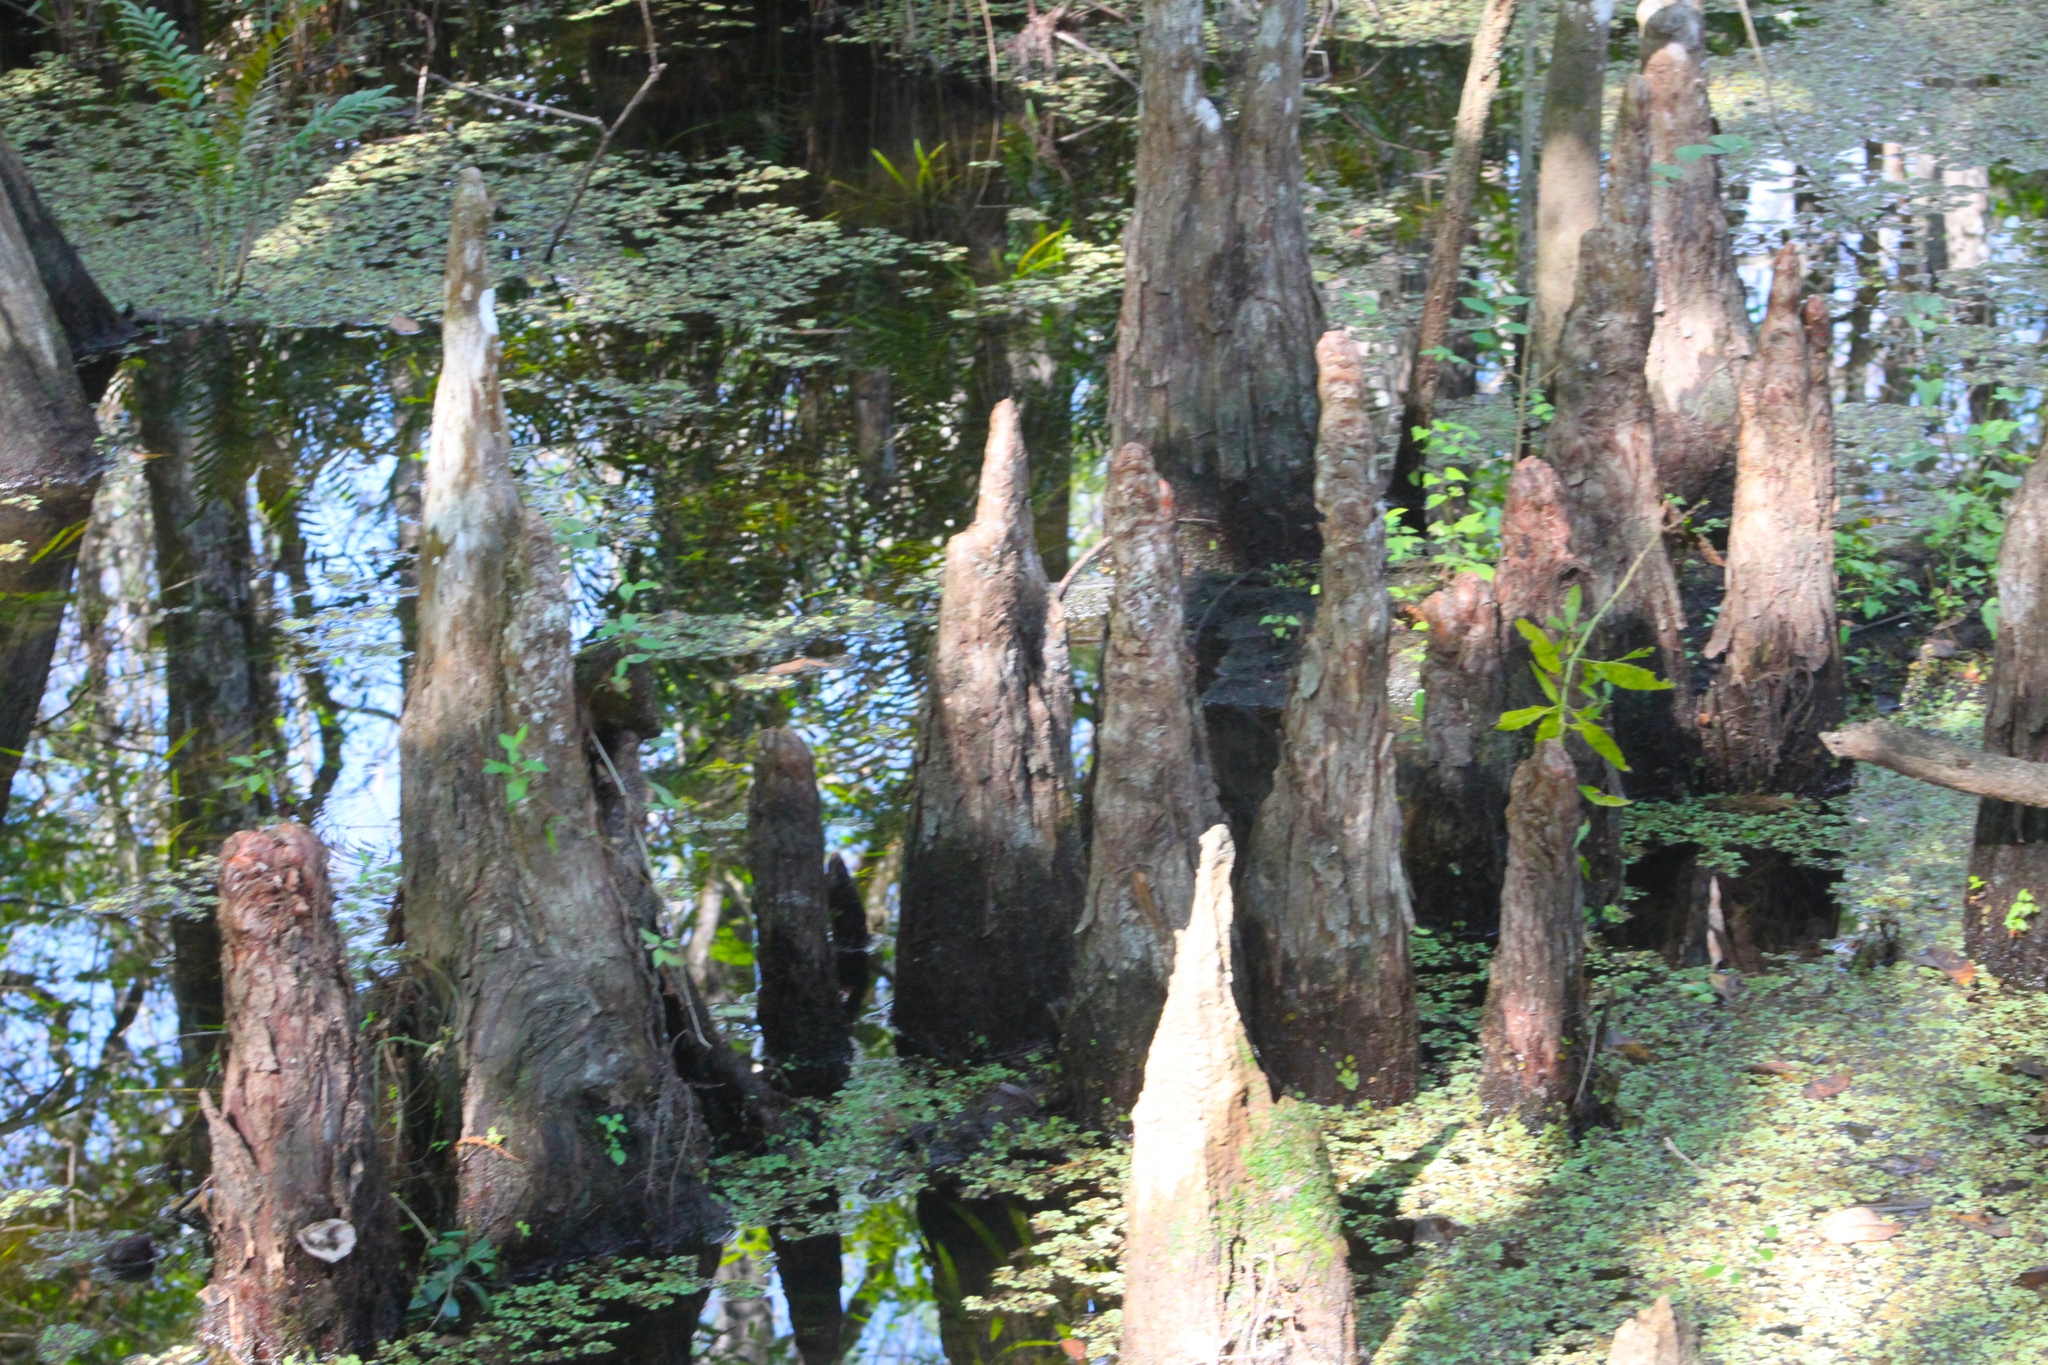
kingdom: Plantae
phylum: Tracheophyta
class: Pinopsida
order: Pinales
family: Cupressaceae
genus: Taxodium
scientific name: Taxodium distichum
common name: Bald cypress
